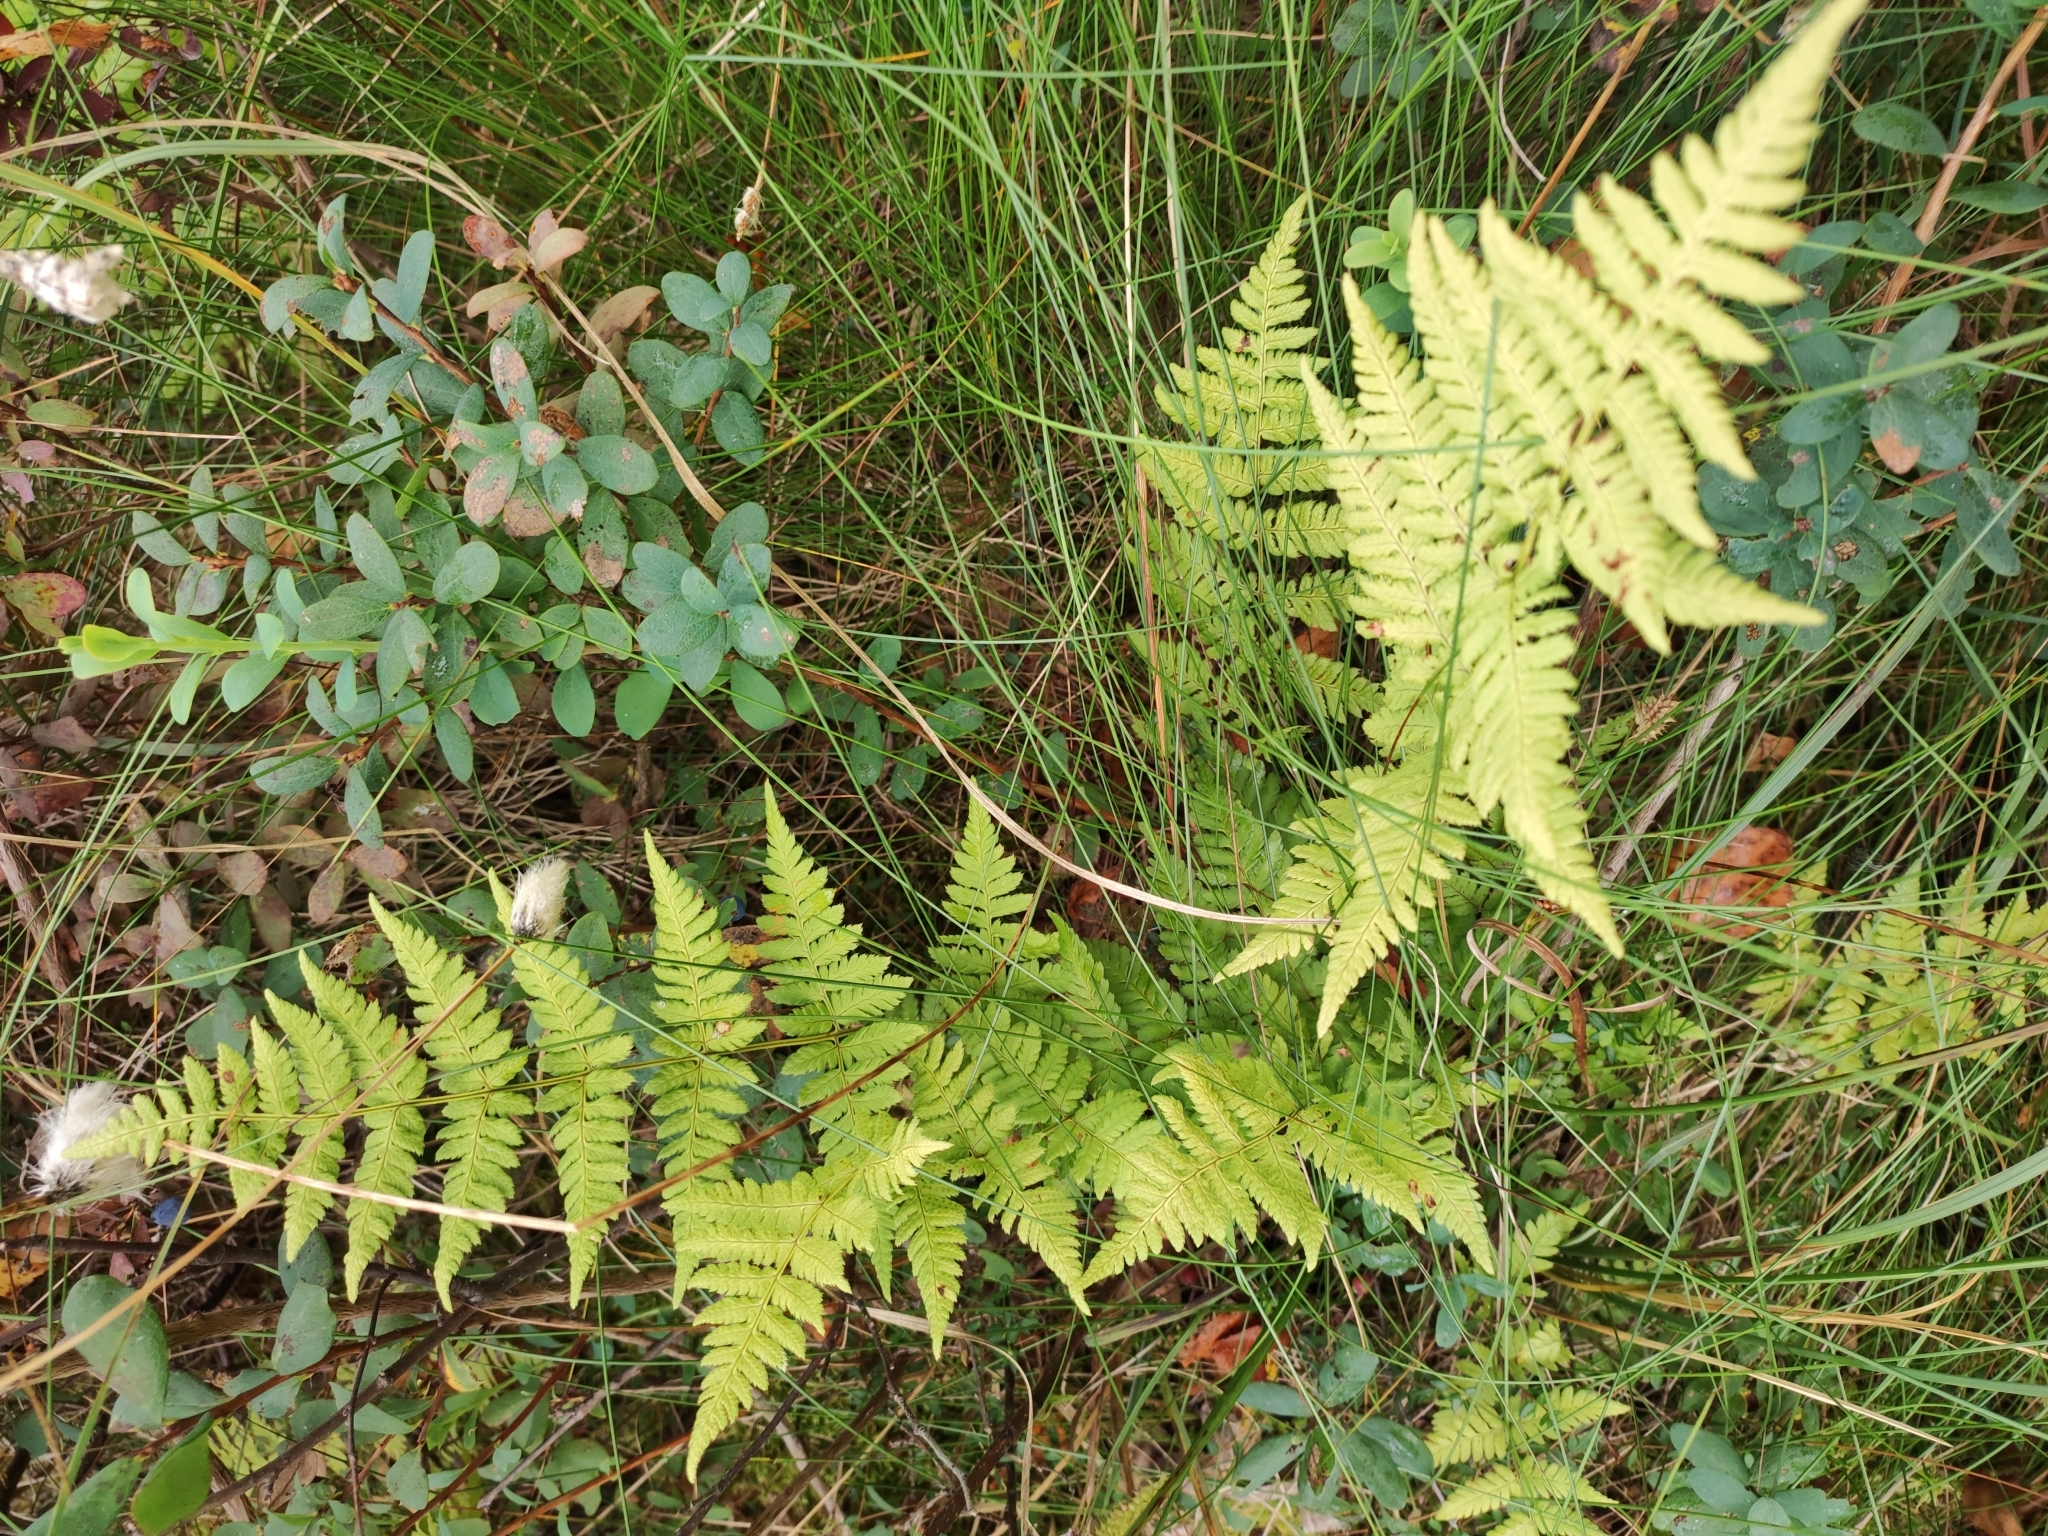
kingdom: Plantae
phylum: Tracheophyta
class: Polypodiopsida
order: Polypodiales
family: Dryopteridaceae
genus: Dryopteris
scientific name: Dryopteris carthusiana
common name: Narrow buckler-fern
